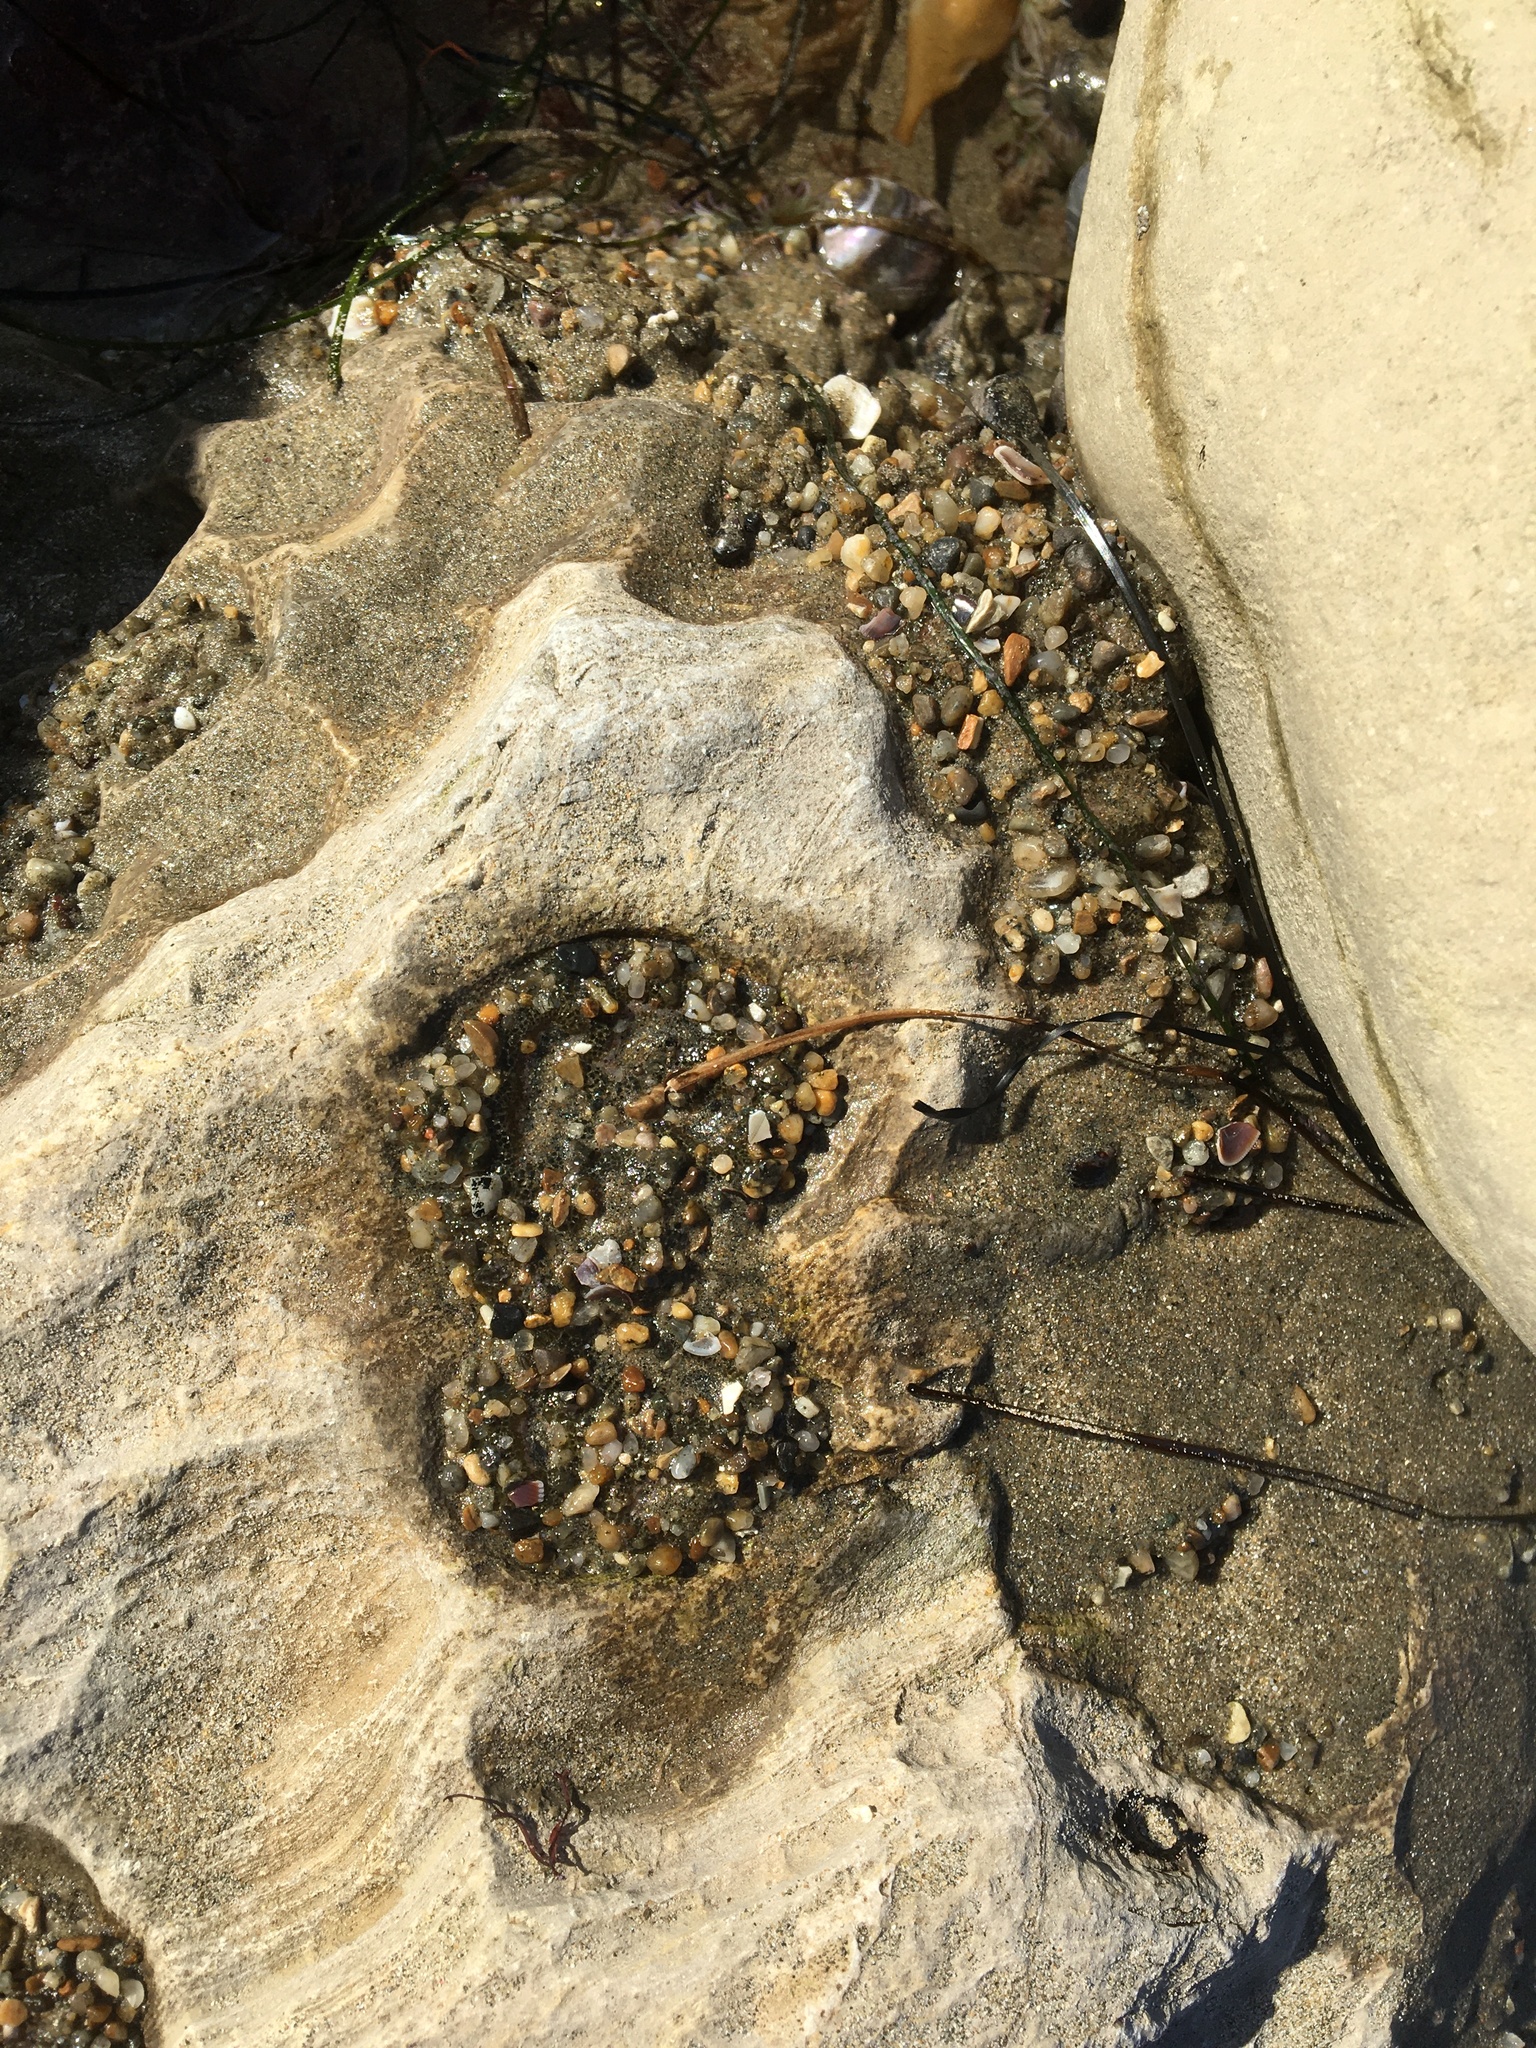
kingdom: Animalia
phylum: Cnidaria
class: Anthozoa
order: Actiniaria
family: Actiniidae
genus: Anthopleura
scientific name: Anthopleura elegantissima
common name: Clonal anemone
